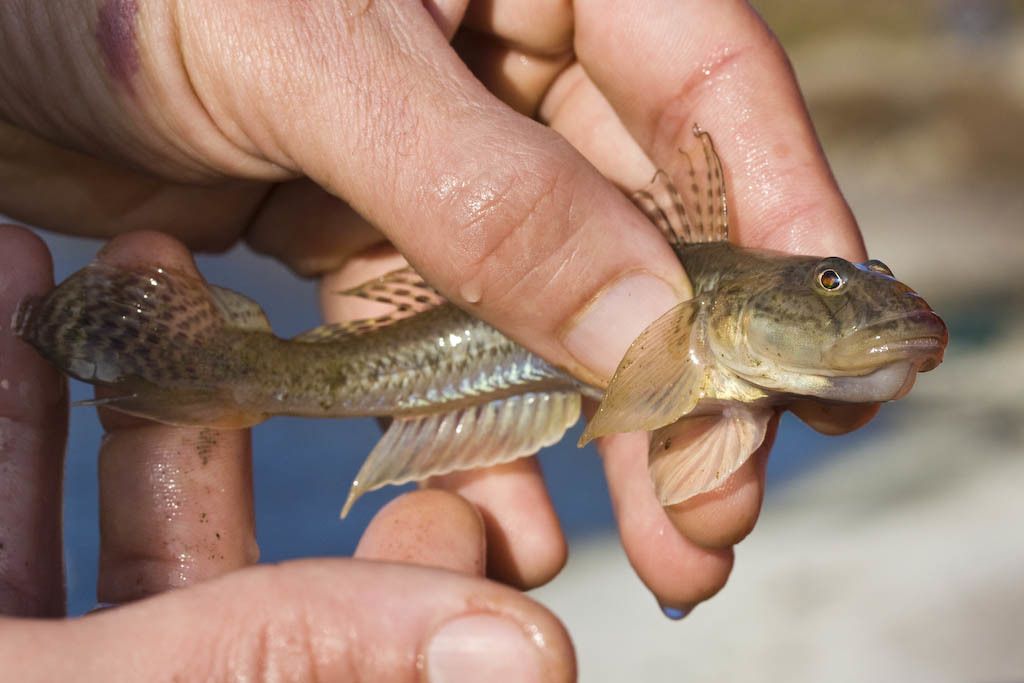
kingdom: Animalia
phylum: Chordata
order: Perciformes
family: Gobiidae
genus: Acanthogobius
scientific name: Acanthogobius flavimanus
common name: Yellowfin goby
